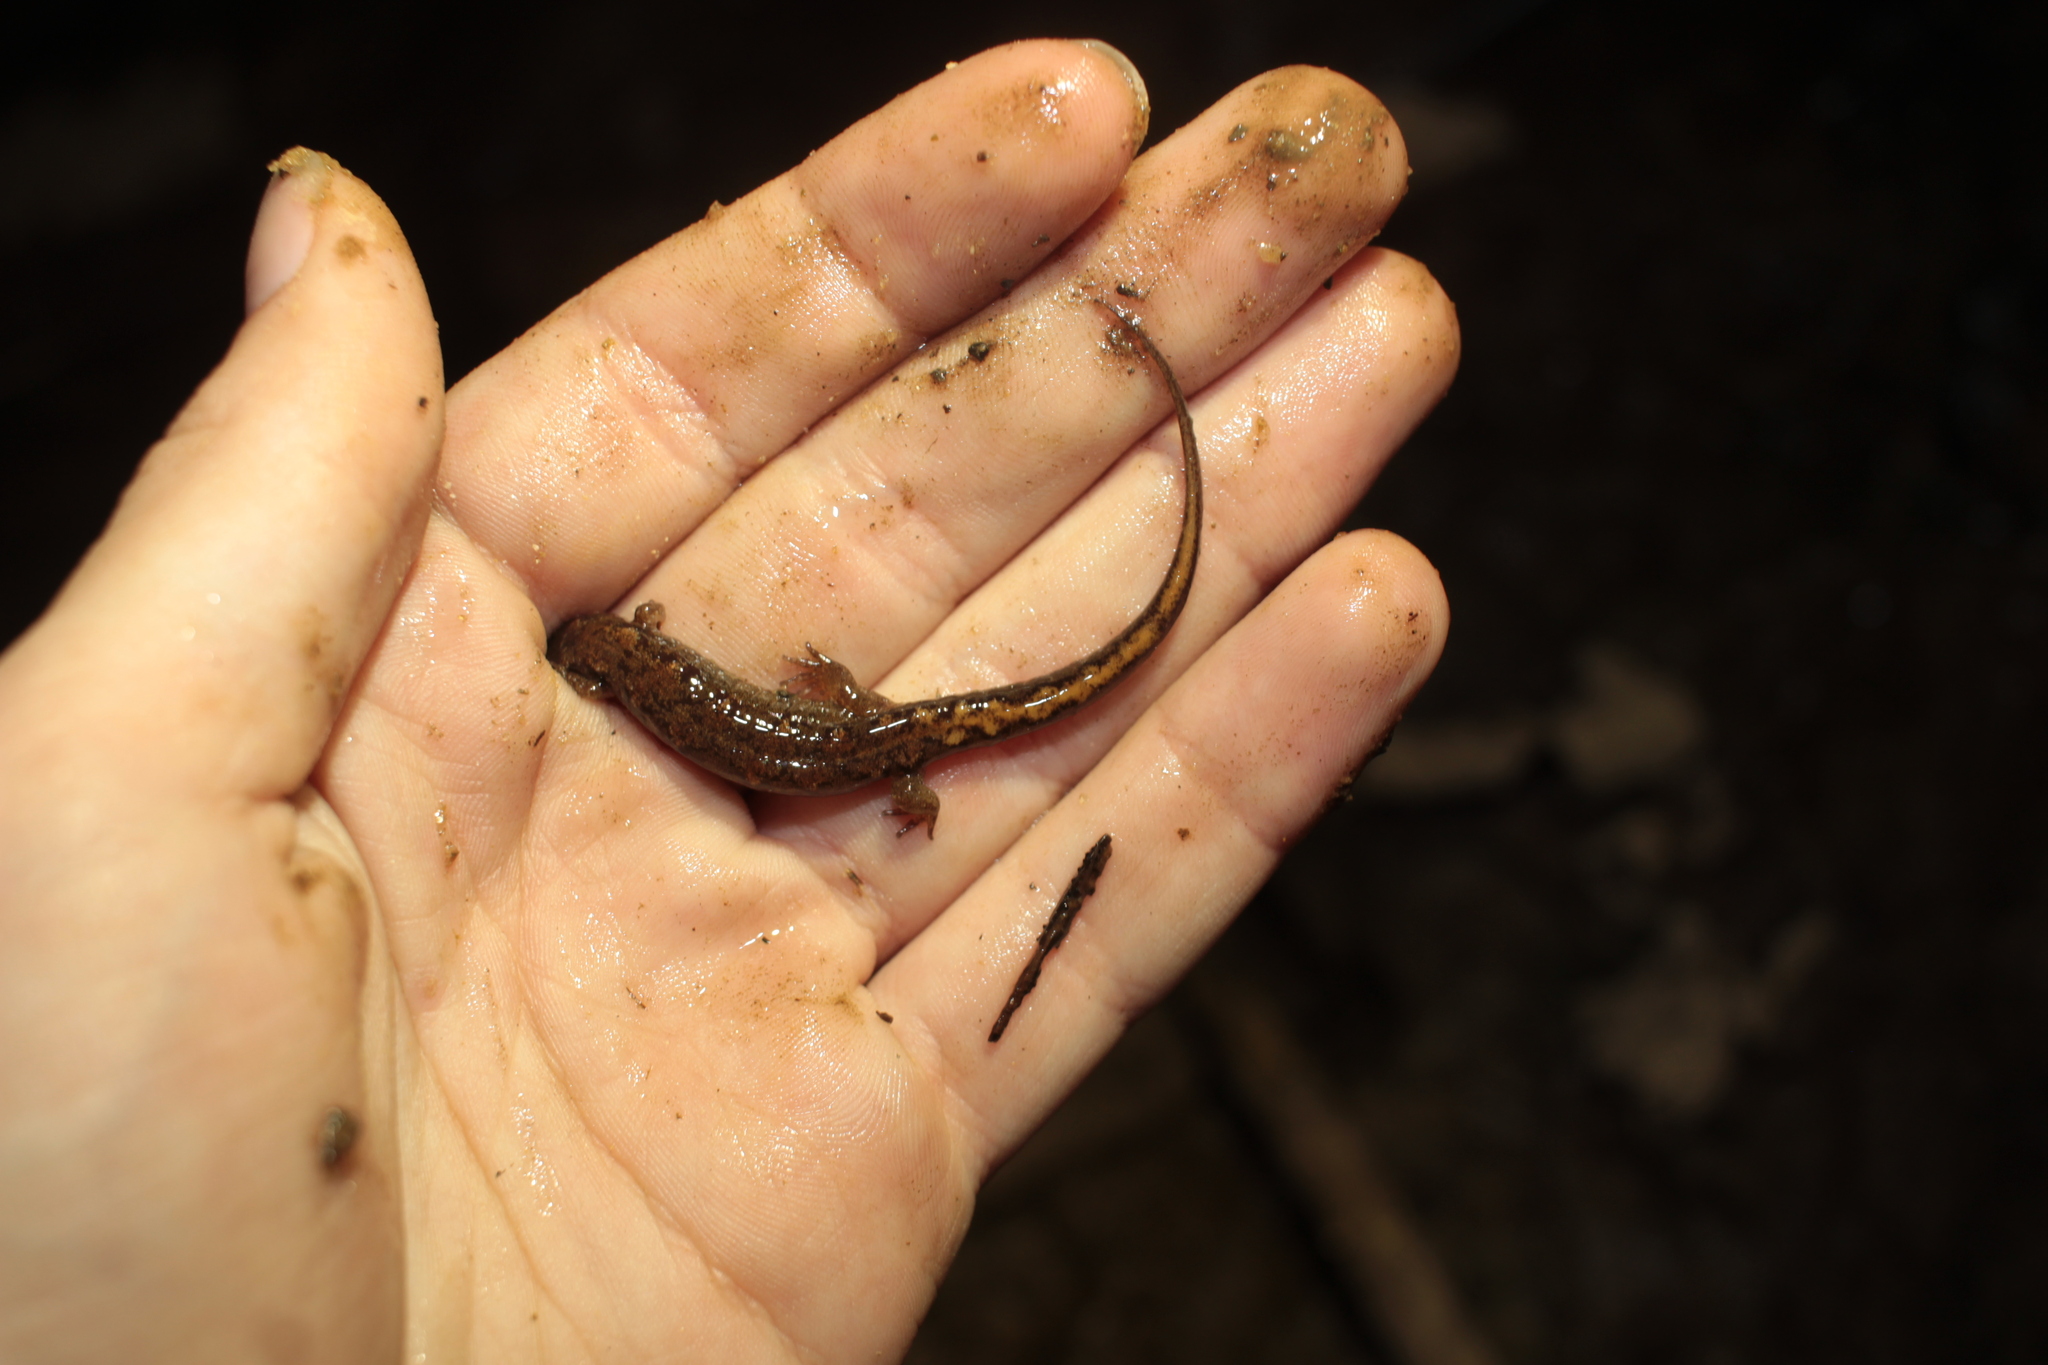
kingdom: Animalia
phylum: Chordata
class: Amphibia
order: Caudata
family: Plethodontidae
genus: Desmognathus
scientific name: Desmognathus ocoee
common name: Ocoee salamander
